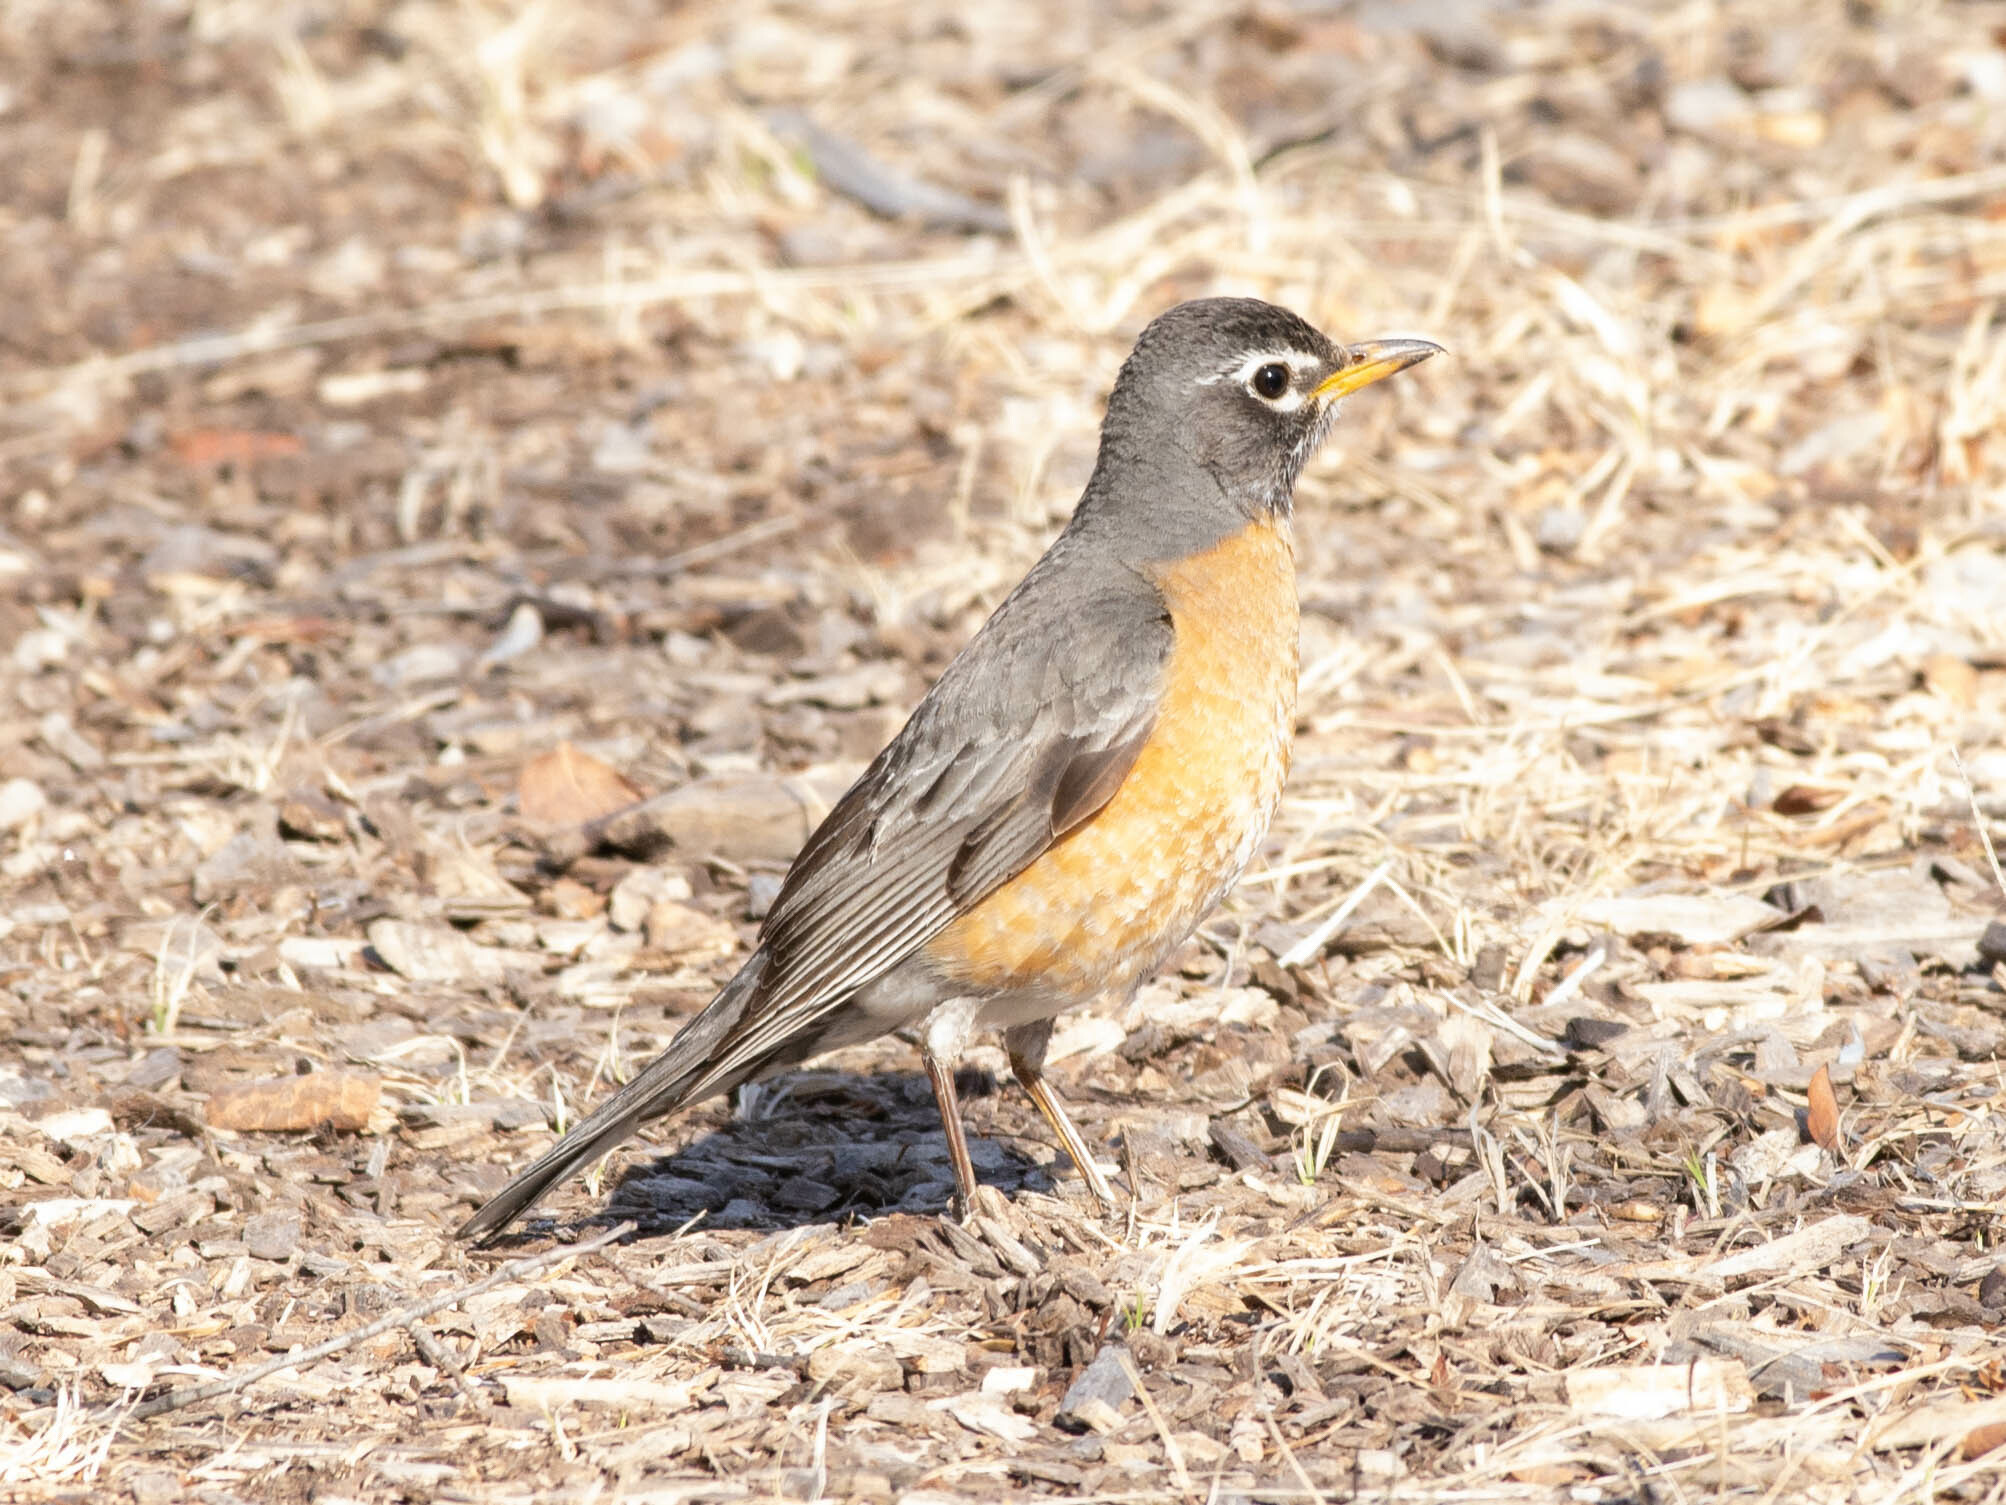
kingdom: Animalia
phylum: Chordata
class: Aves
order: Passeriformes
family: Turdidae
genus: Turdus
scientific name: Turdus migratorius
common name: American robin
